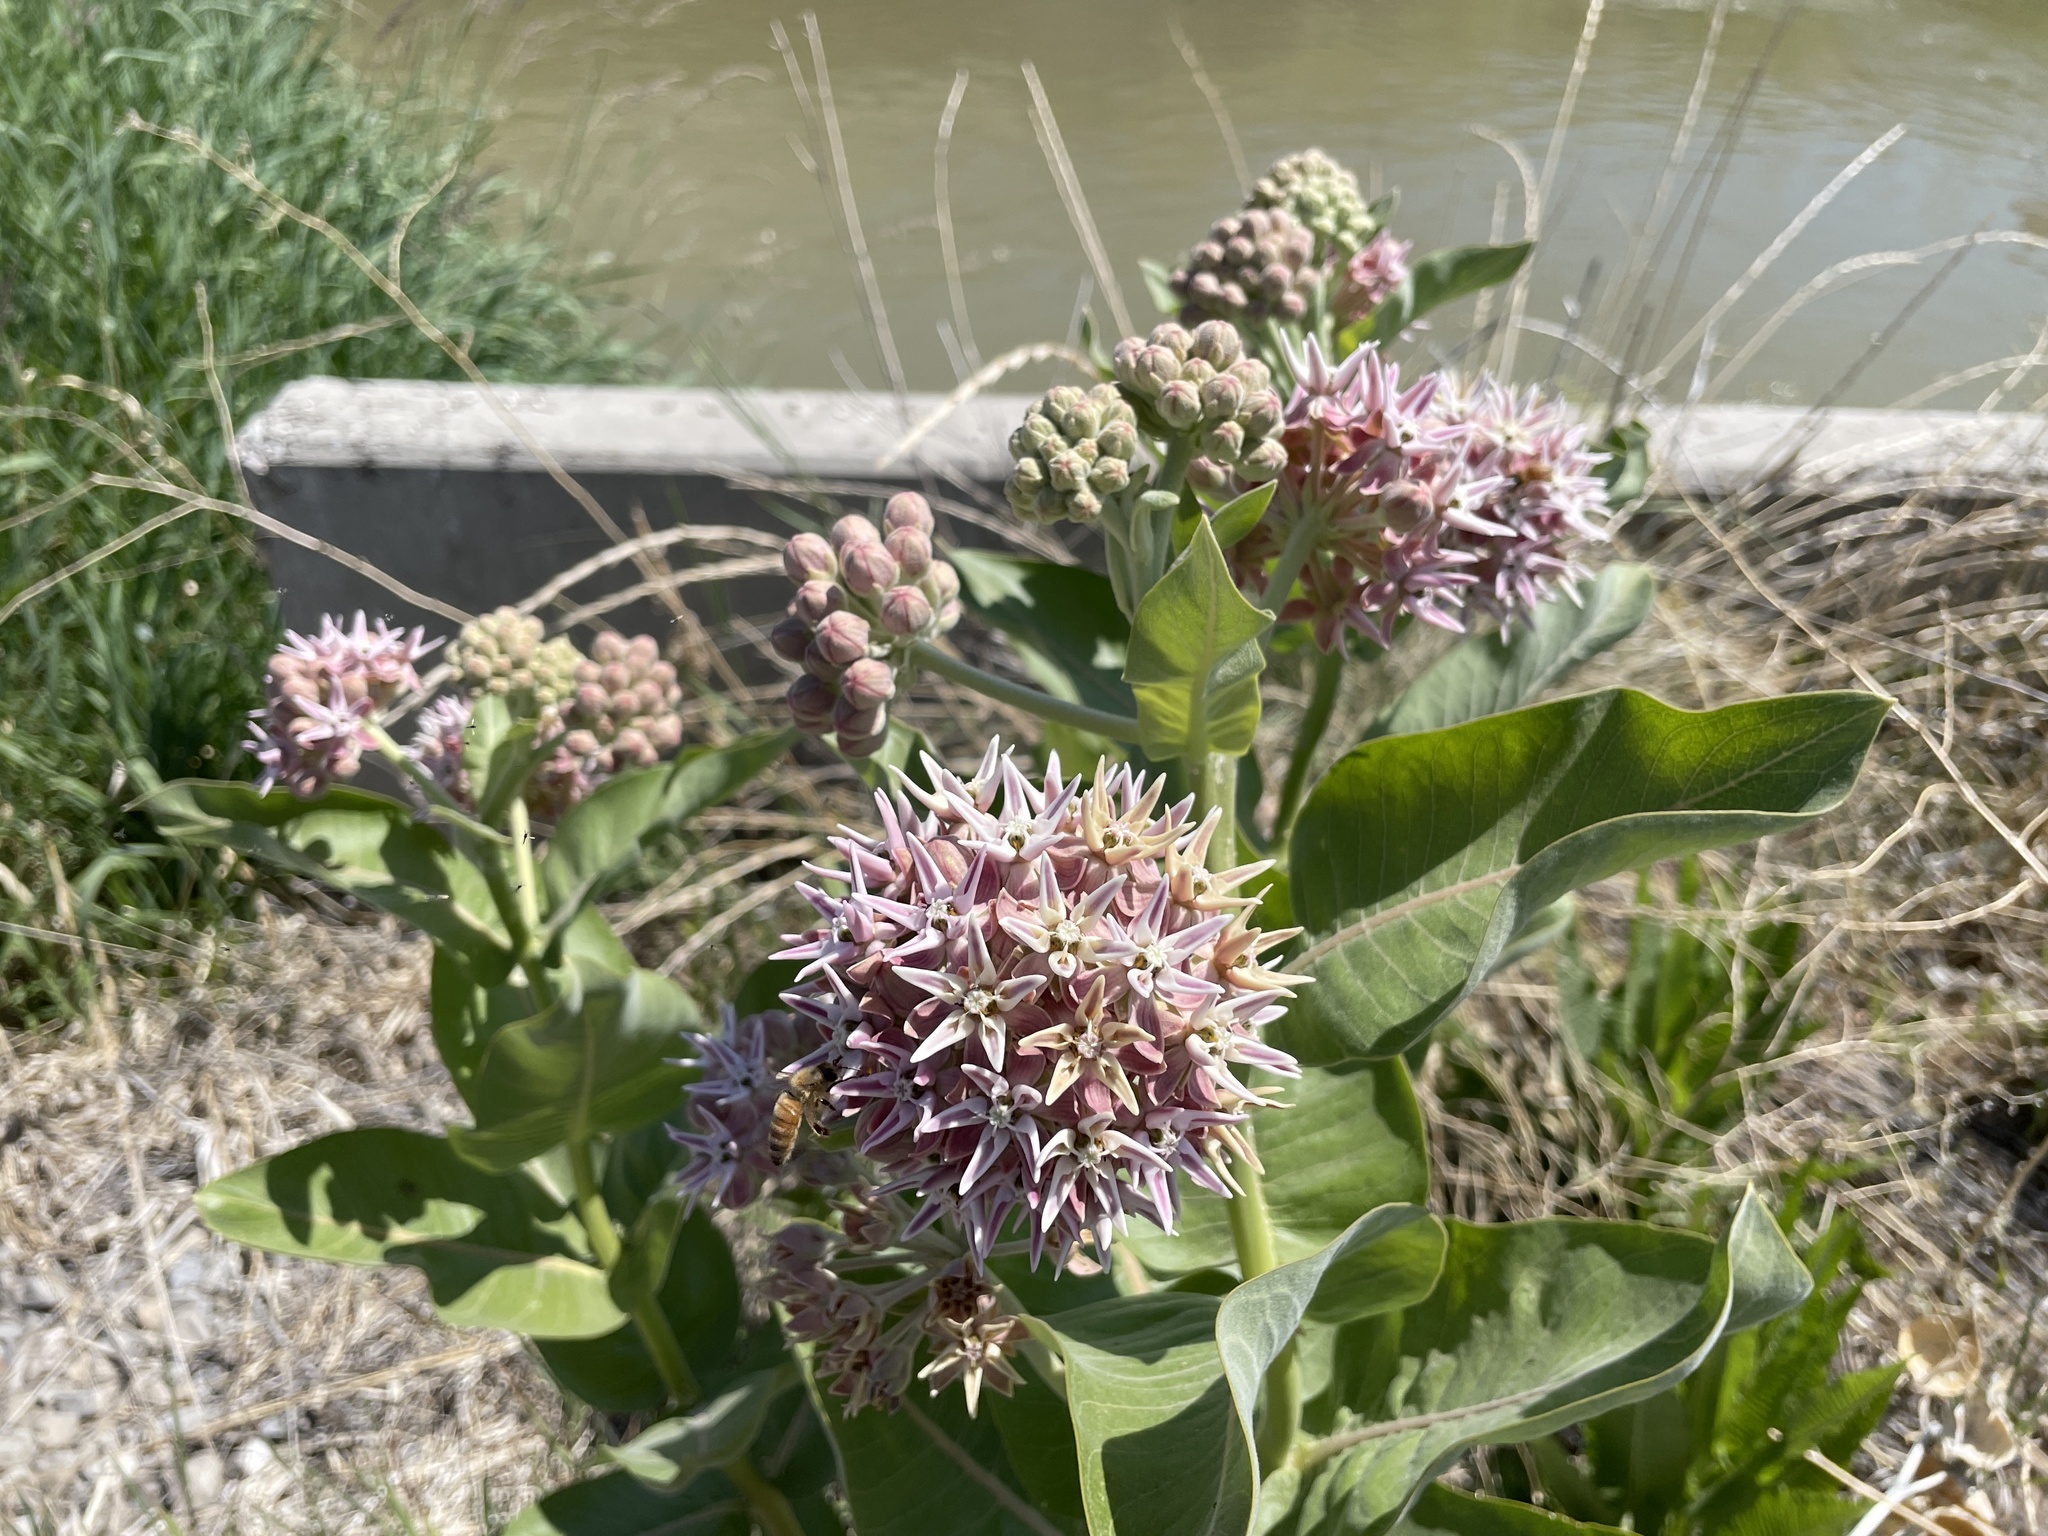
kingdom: Plantae
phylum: Tracheophyta
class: Magnoliopsida
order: Gentianales
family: Apocynaceae
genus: Asclepias
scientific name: Asclepias speciosa
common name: Showy milkweed
